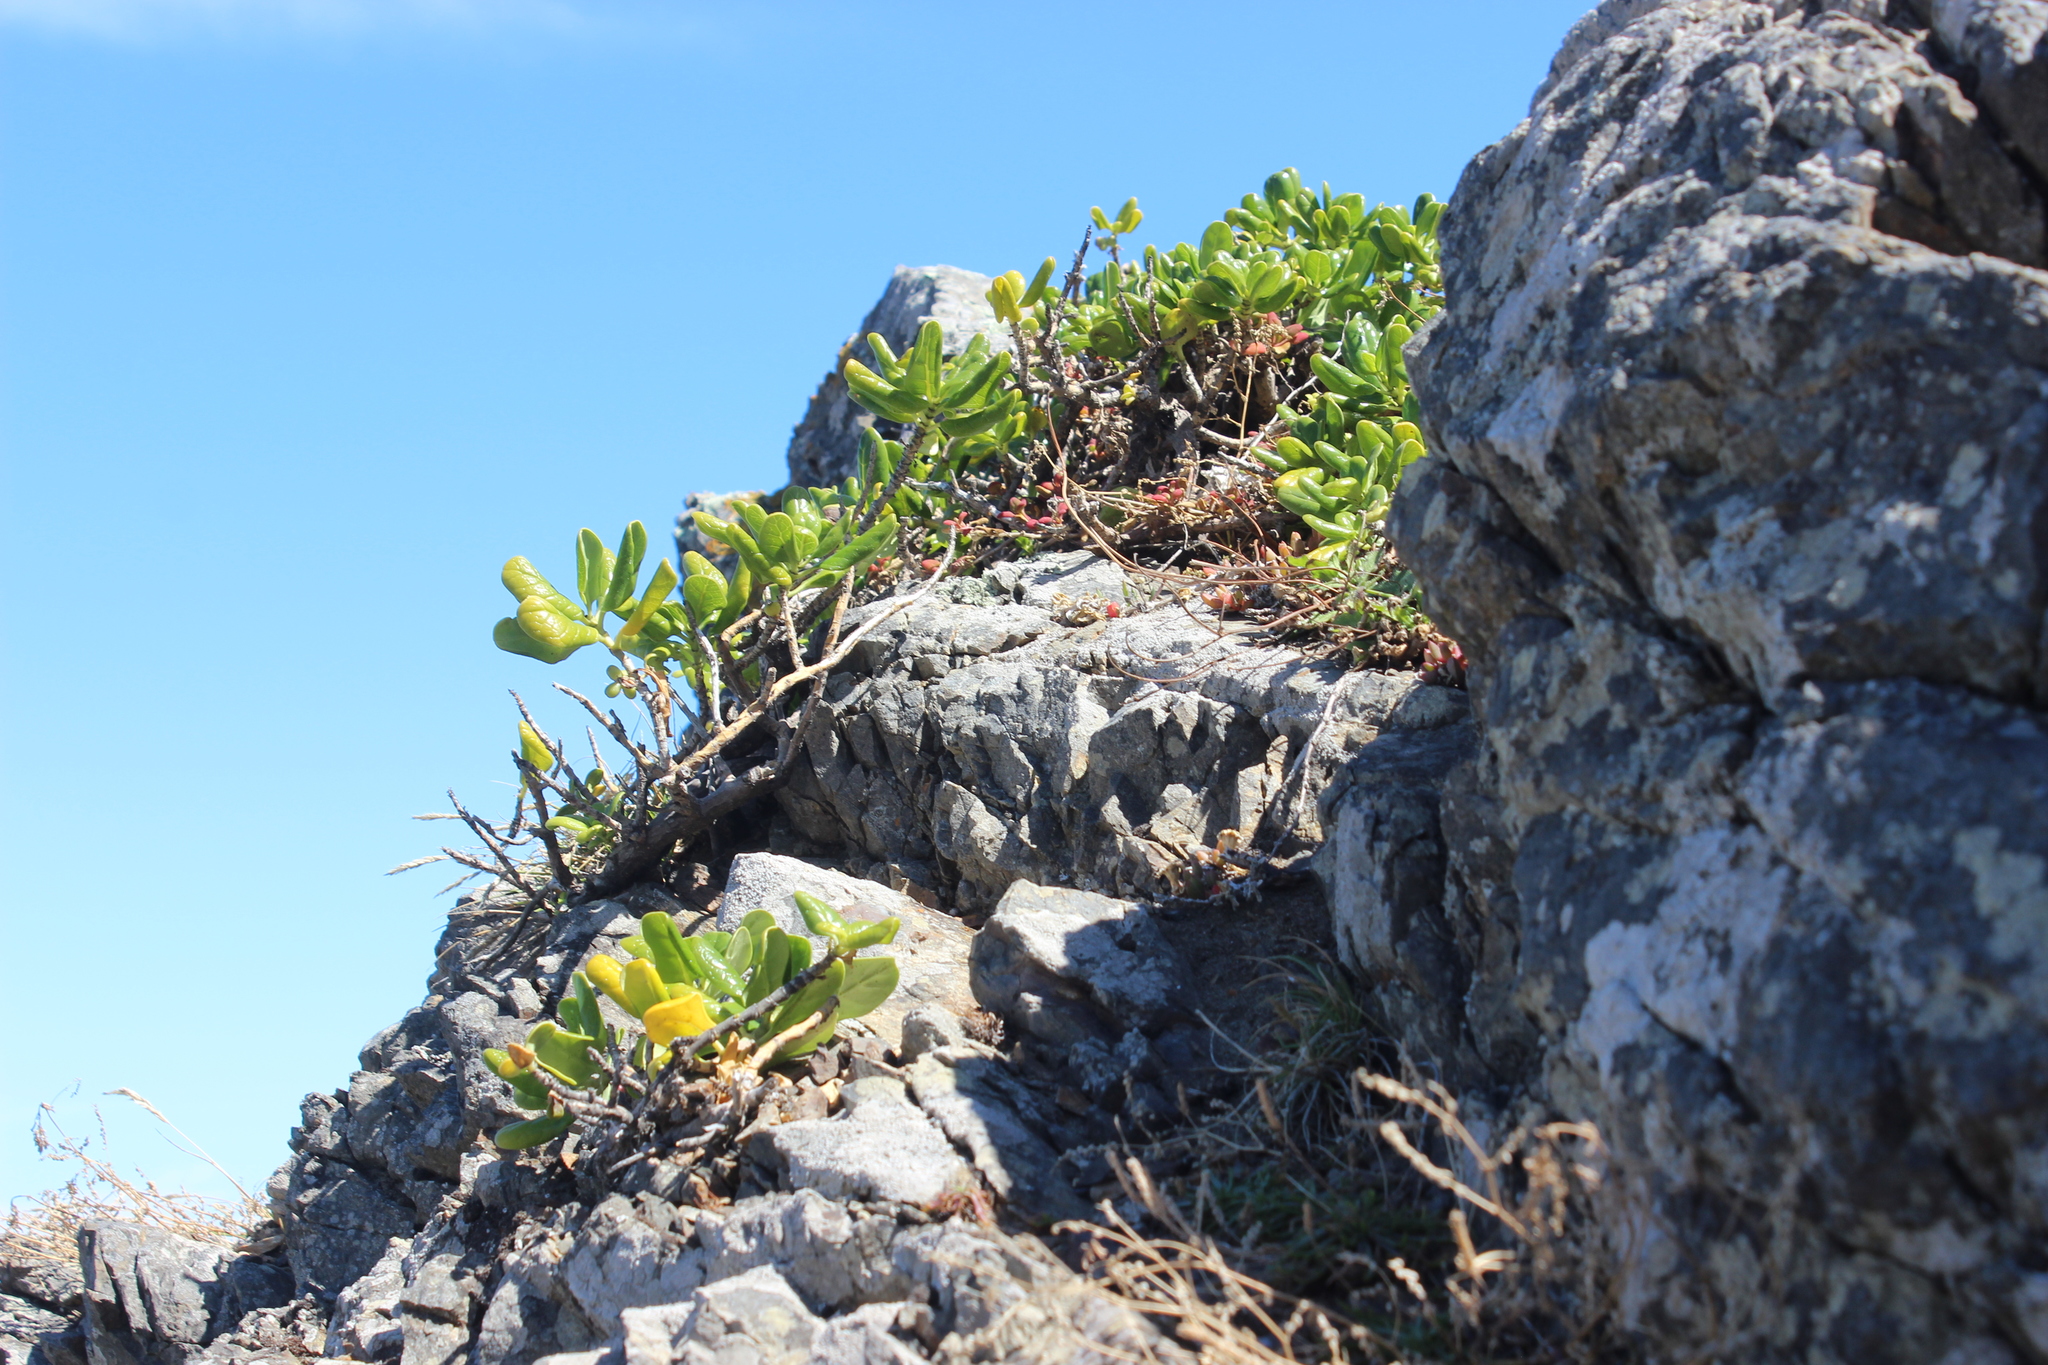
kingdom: Plantae
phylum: Tracheophyta
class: Magnoliopsida
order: Gentianales
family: Rubiaceae
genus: Coprosma
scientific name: Coprosma repens
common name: Tree bedstraw
